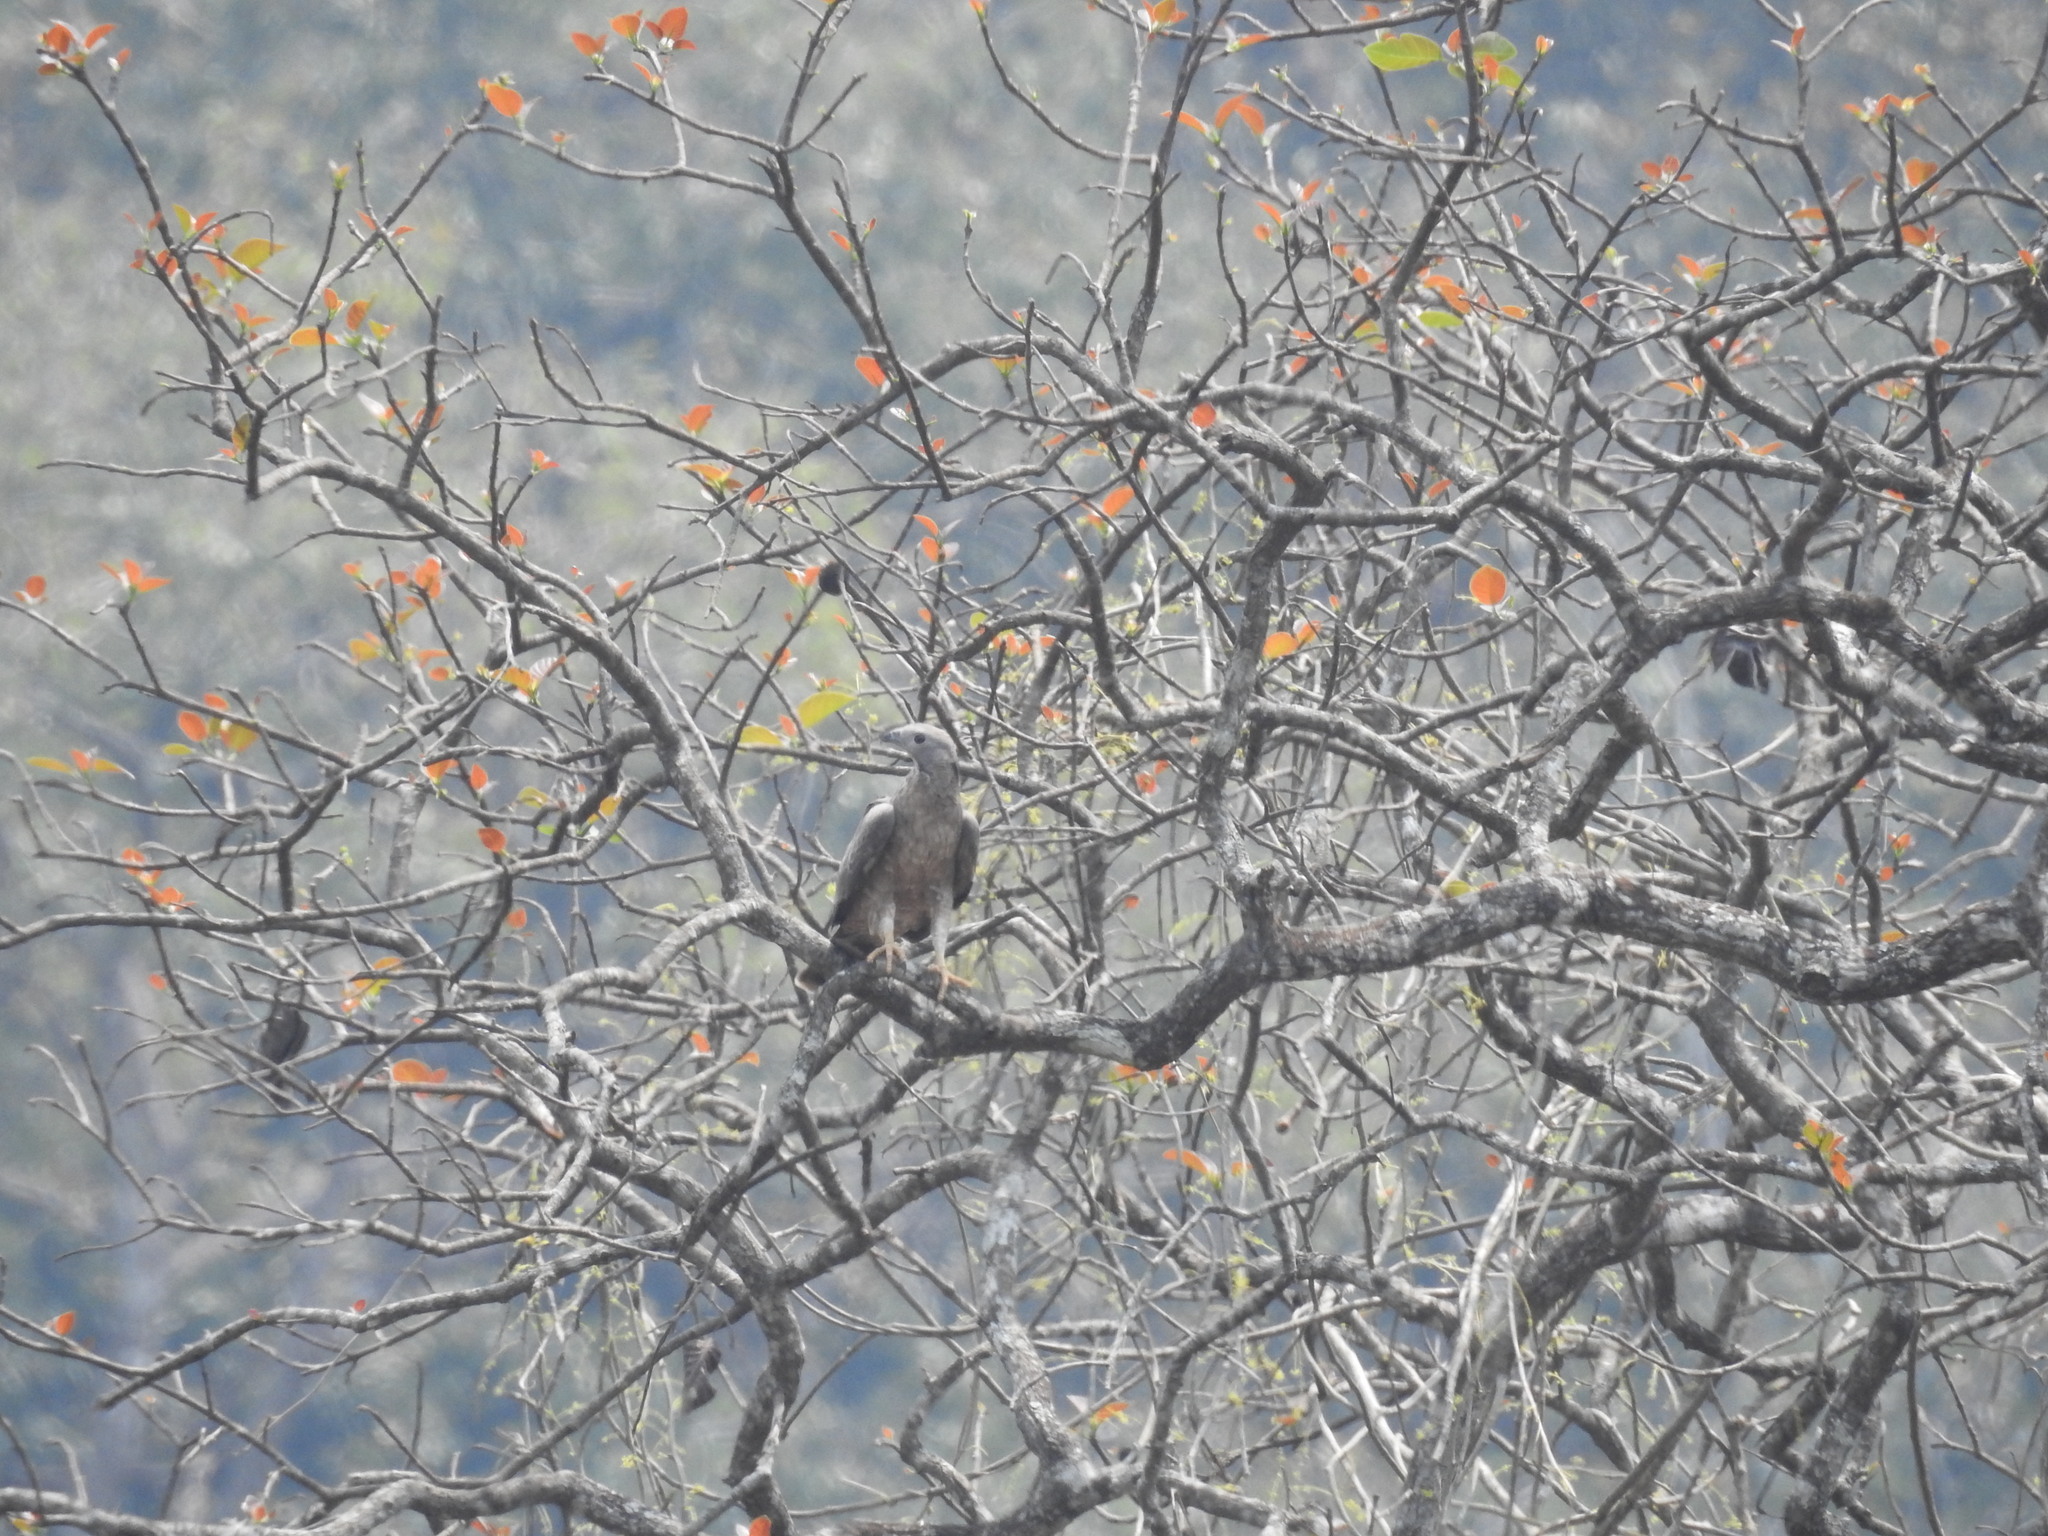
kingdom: Animalia
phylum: Chordata
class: Aves
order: Accipitriformes
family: Accipitridae
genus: Pernis
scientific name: Pernis ptilorhynchus
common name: Crested honey buzzard
